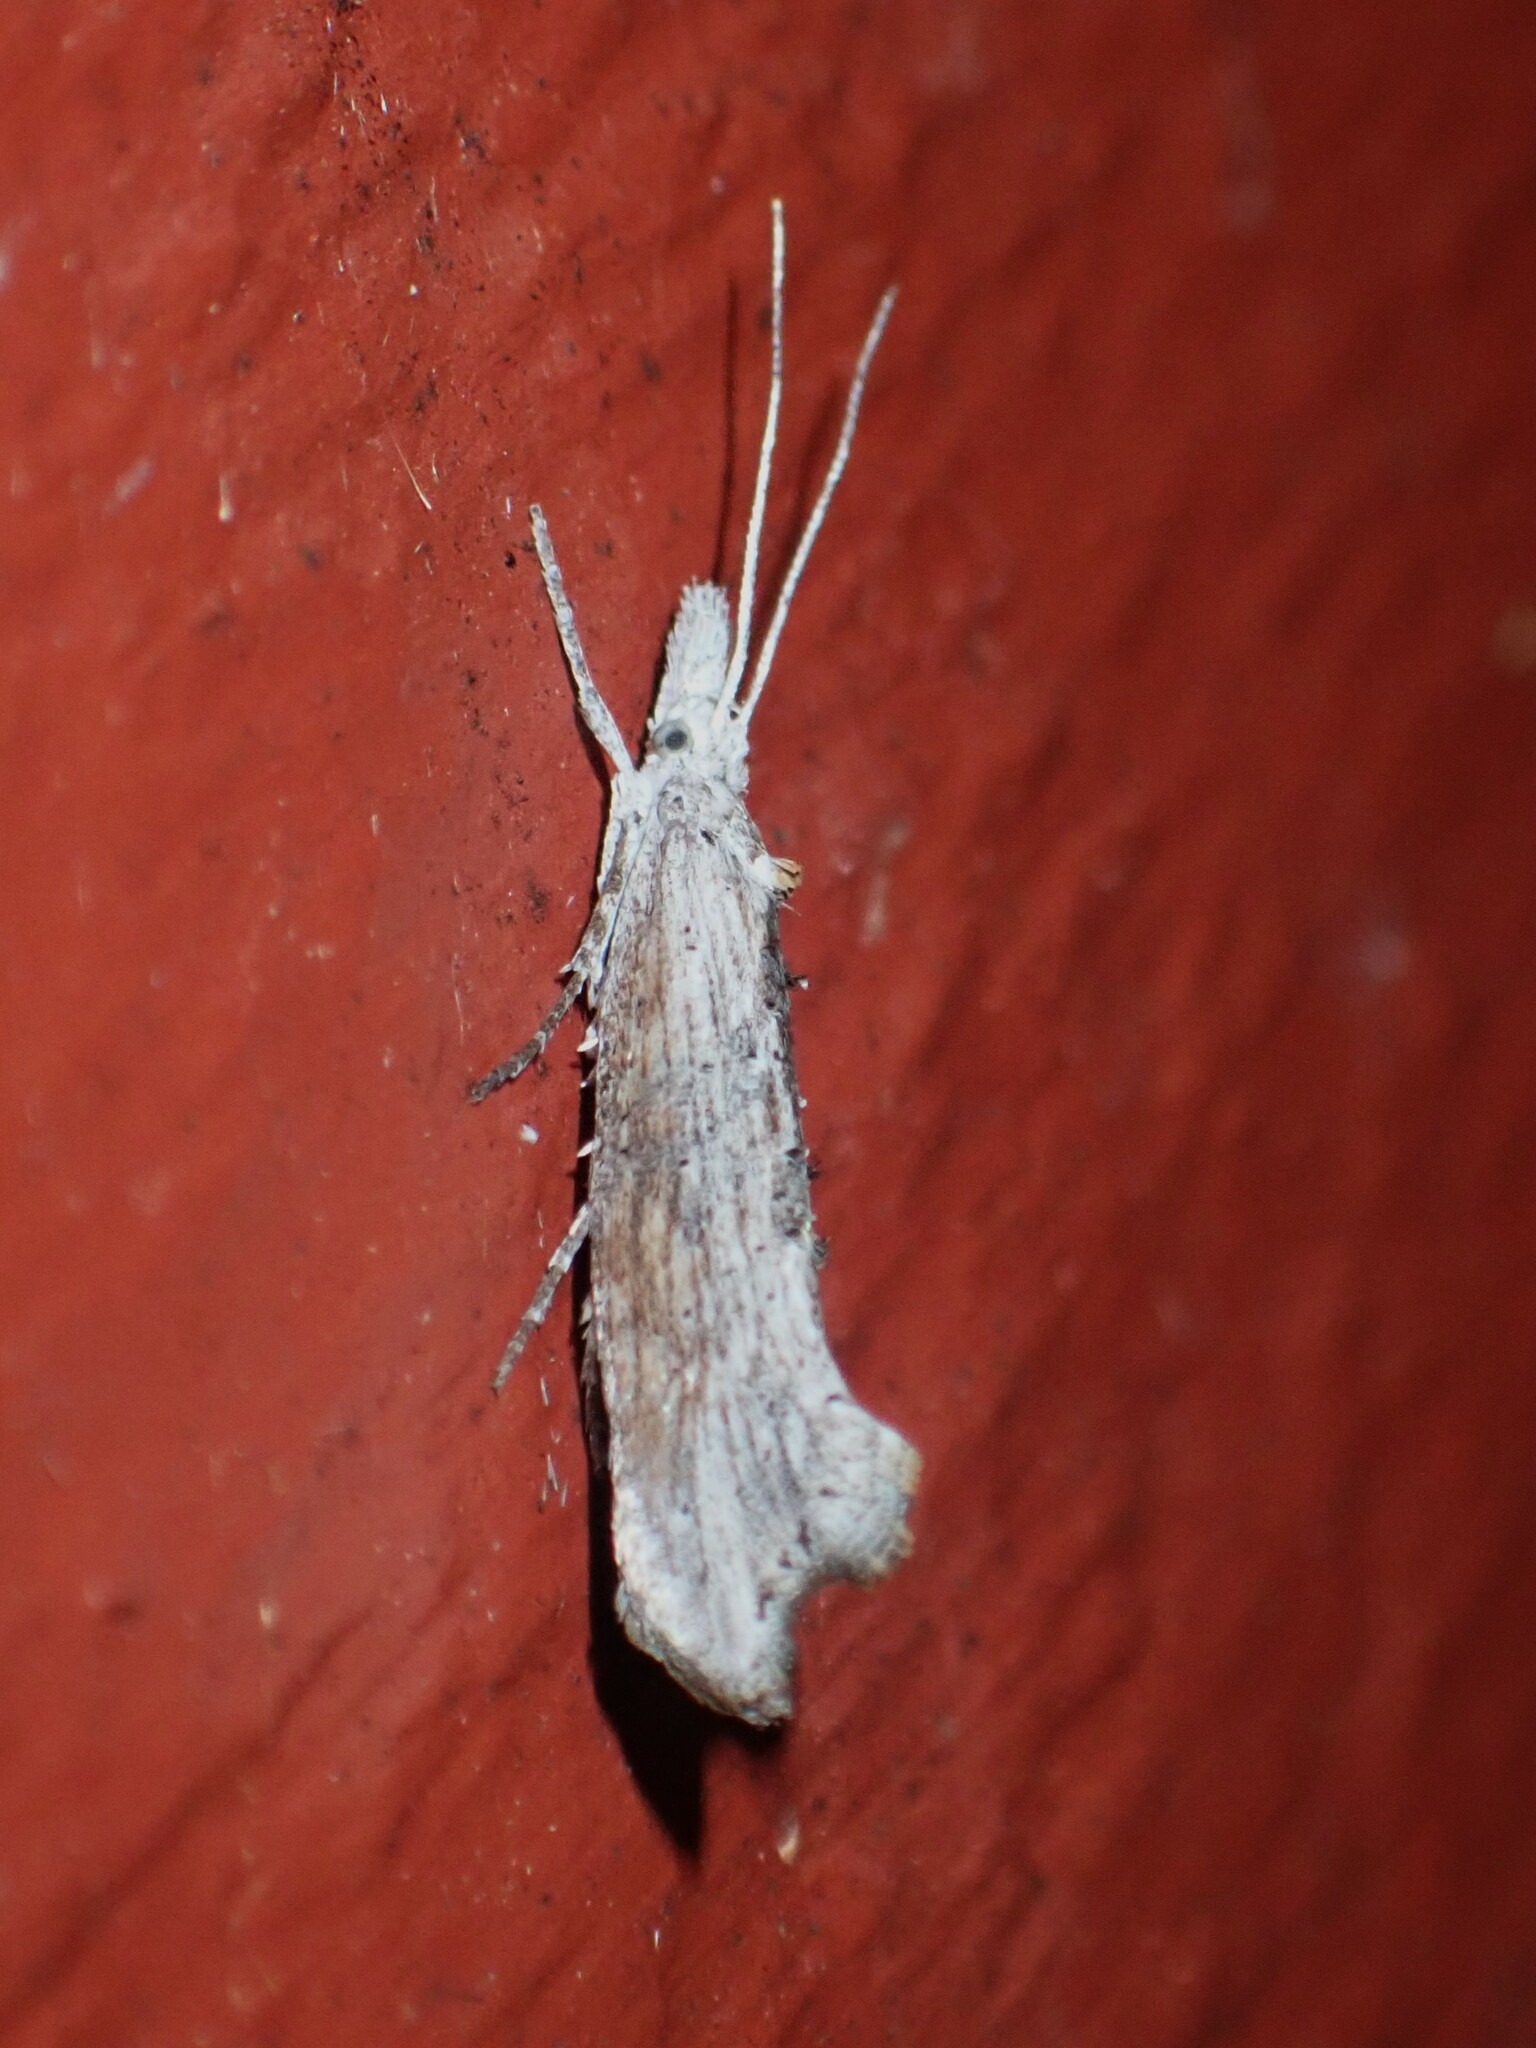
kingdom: Animalia
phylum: Arthropoda
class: Insecta
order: Lepidoptera
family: Ypsolophidae
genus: Ypsolopha
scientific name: Ypsolopha falciferella
